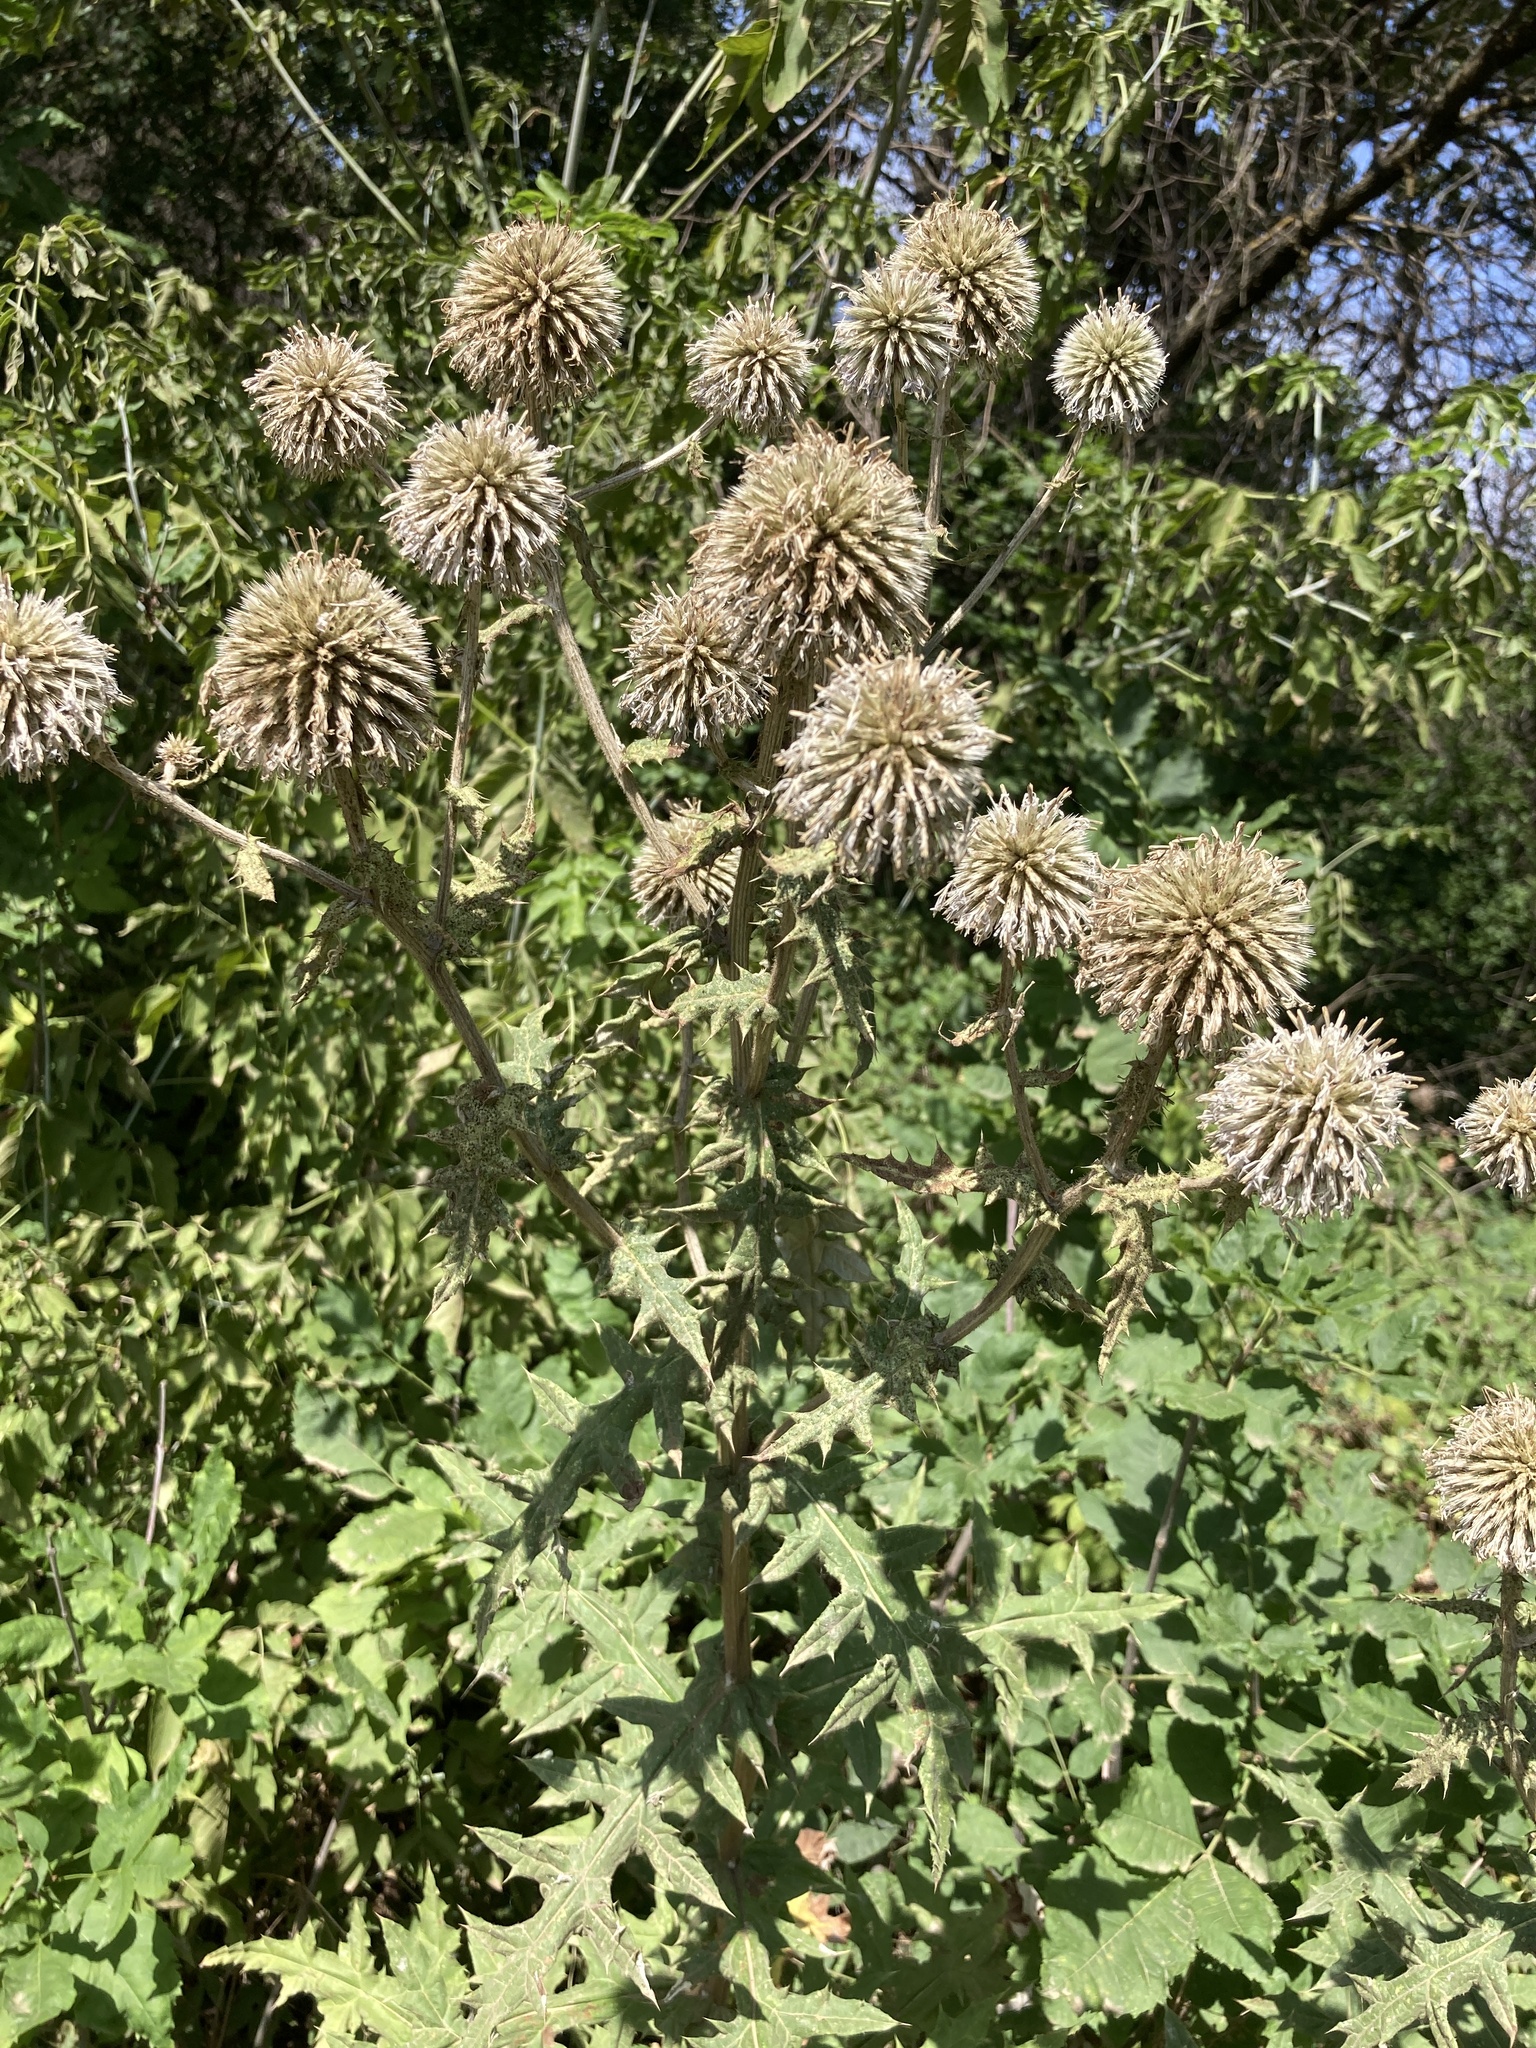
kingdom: Plantae
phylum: Tracheophyta
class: Magnoliopsida
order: Asterales
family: Asteraceae
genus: Echinops
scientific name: Echinops sphaerocephalus
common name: Glandular globe-thistle
